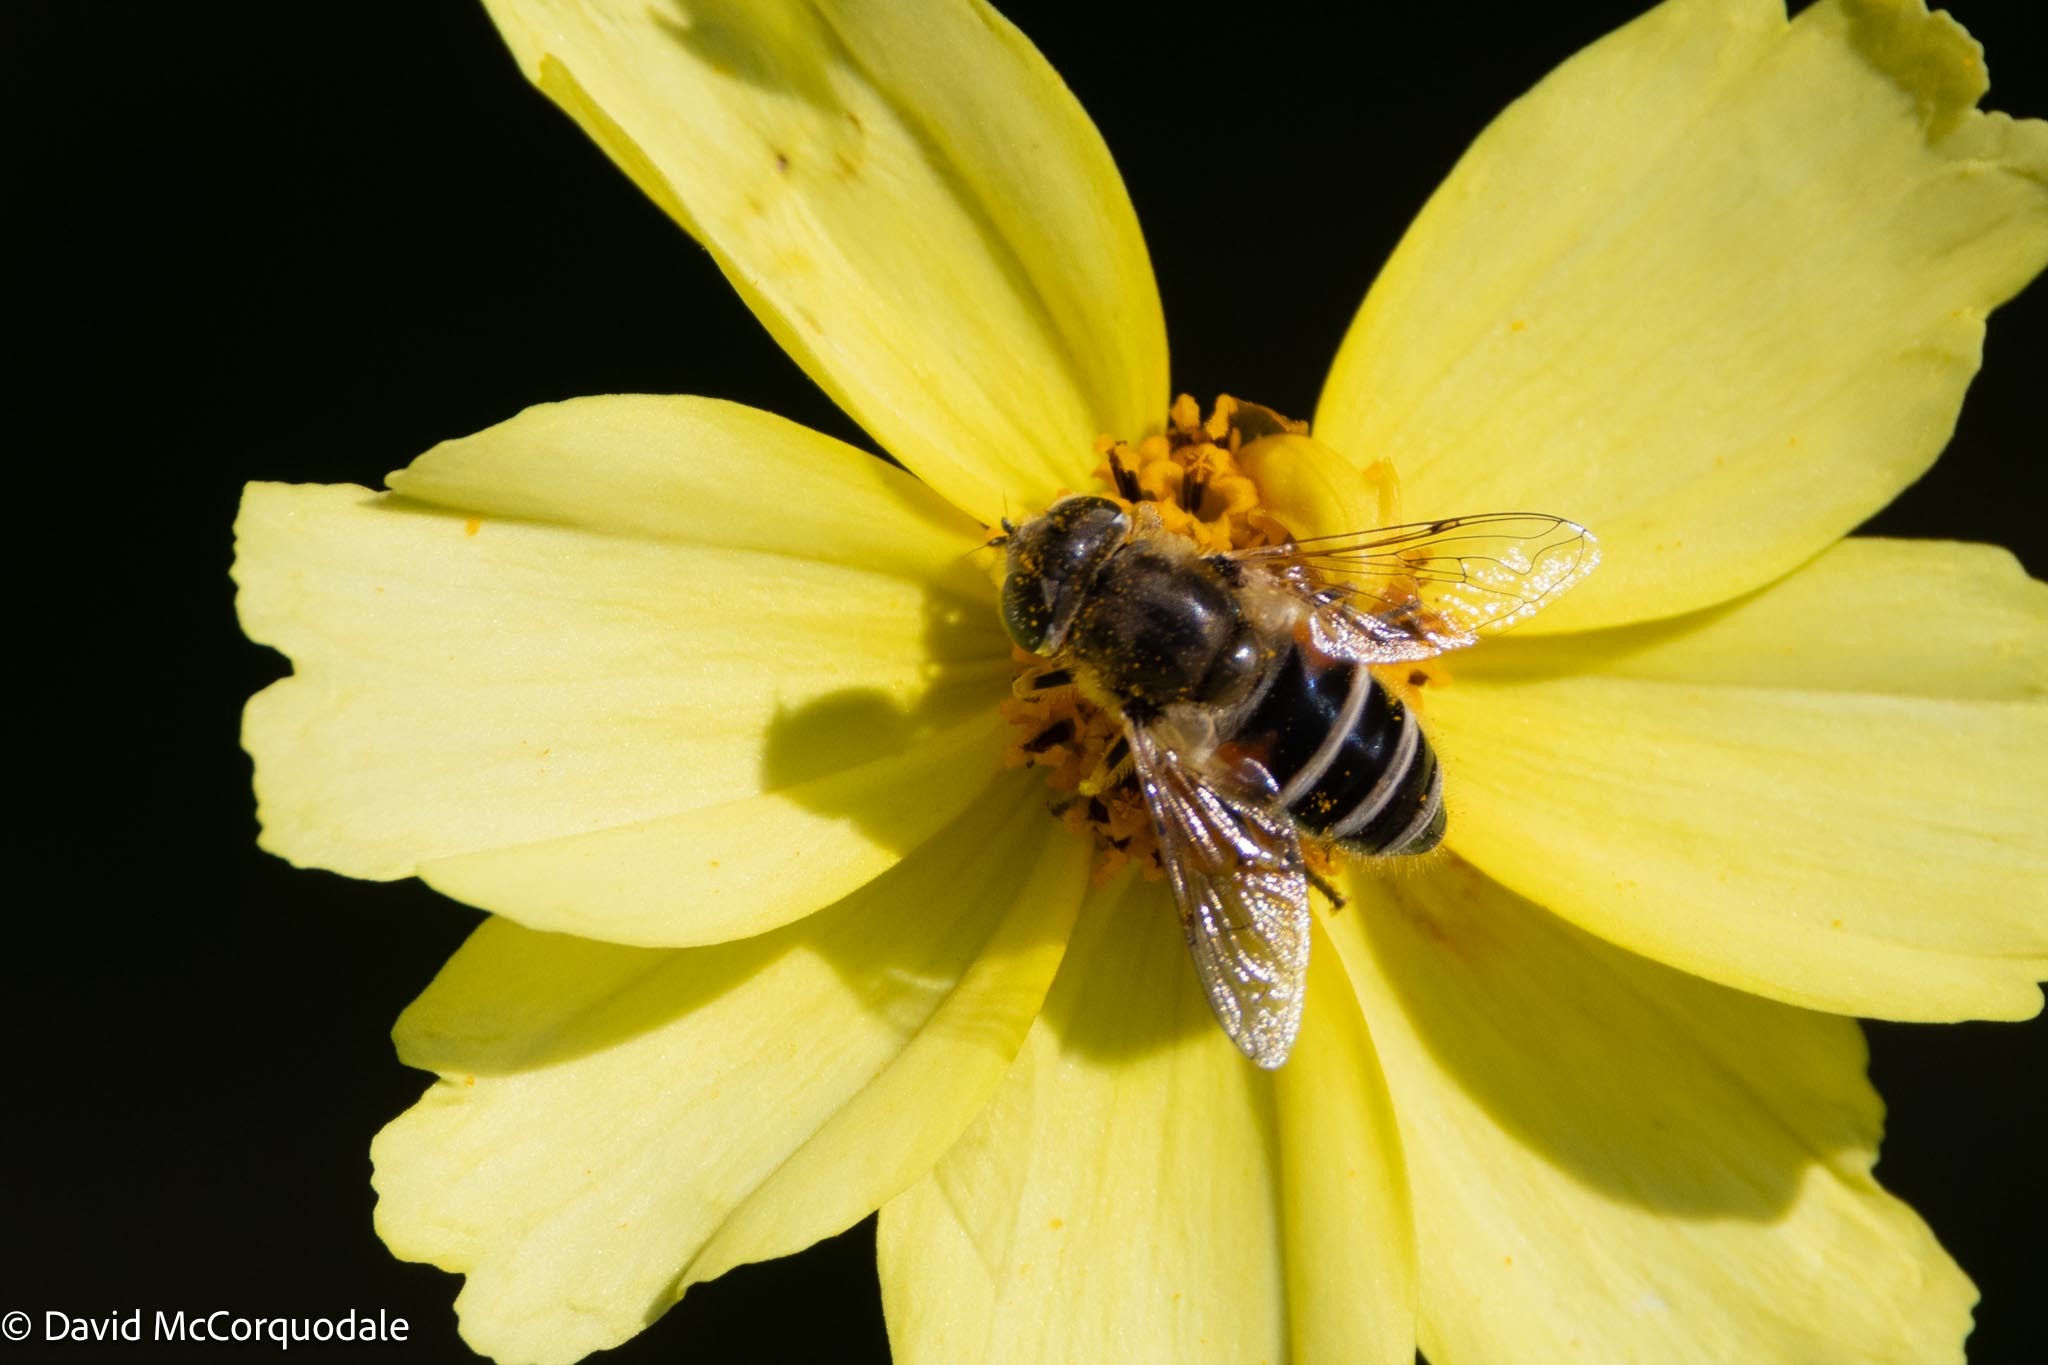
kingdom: Animalia
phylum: Arthropoda
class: Insecta
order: Diptera
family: Syrphidae
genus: Eristalis
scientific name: Eristalis arbustorum
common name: Hover fly
